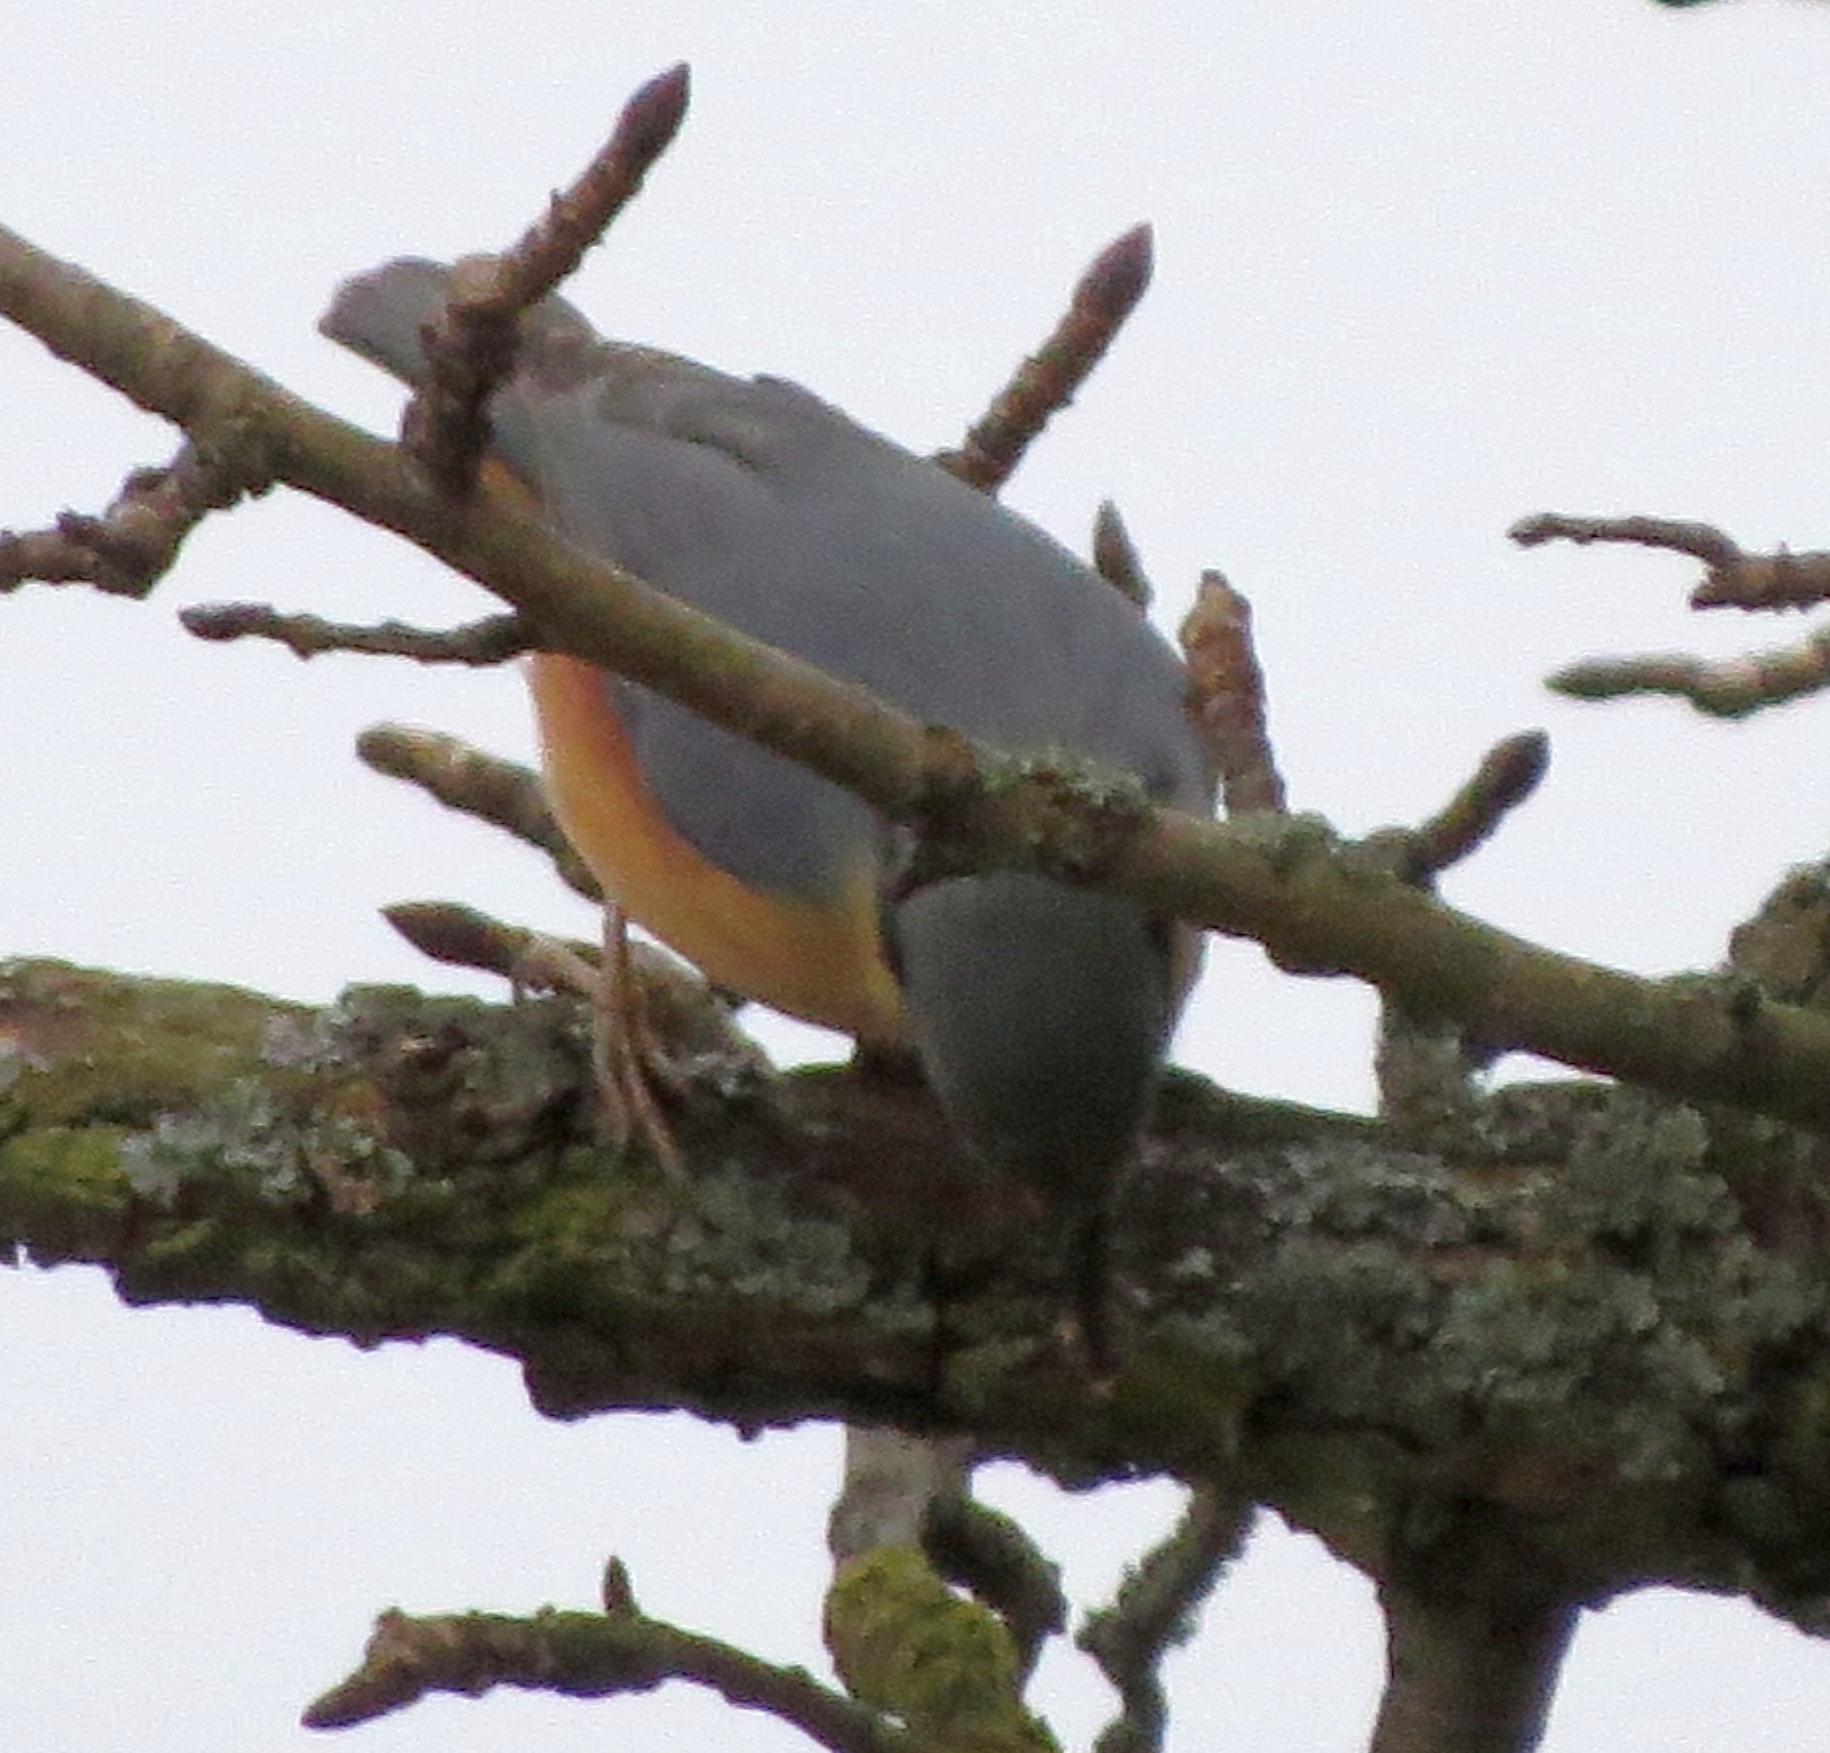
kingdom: Animalia
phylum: Chordata
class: Aves
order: Passeriformes
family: Sittidae
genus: Sitta
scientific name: Sitta europaea
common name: Eurasian nuthatch
